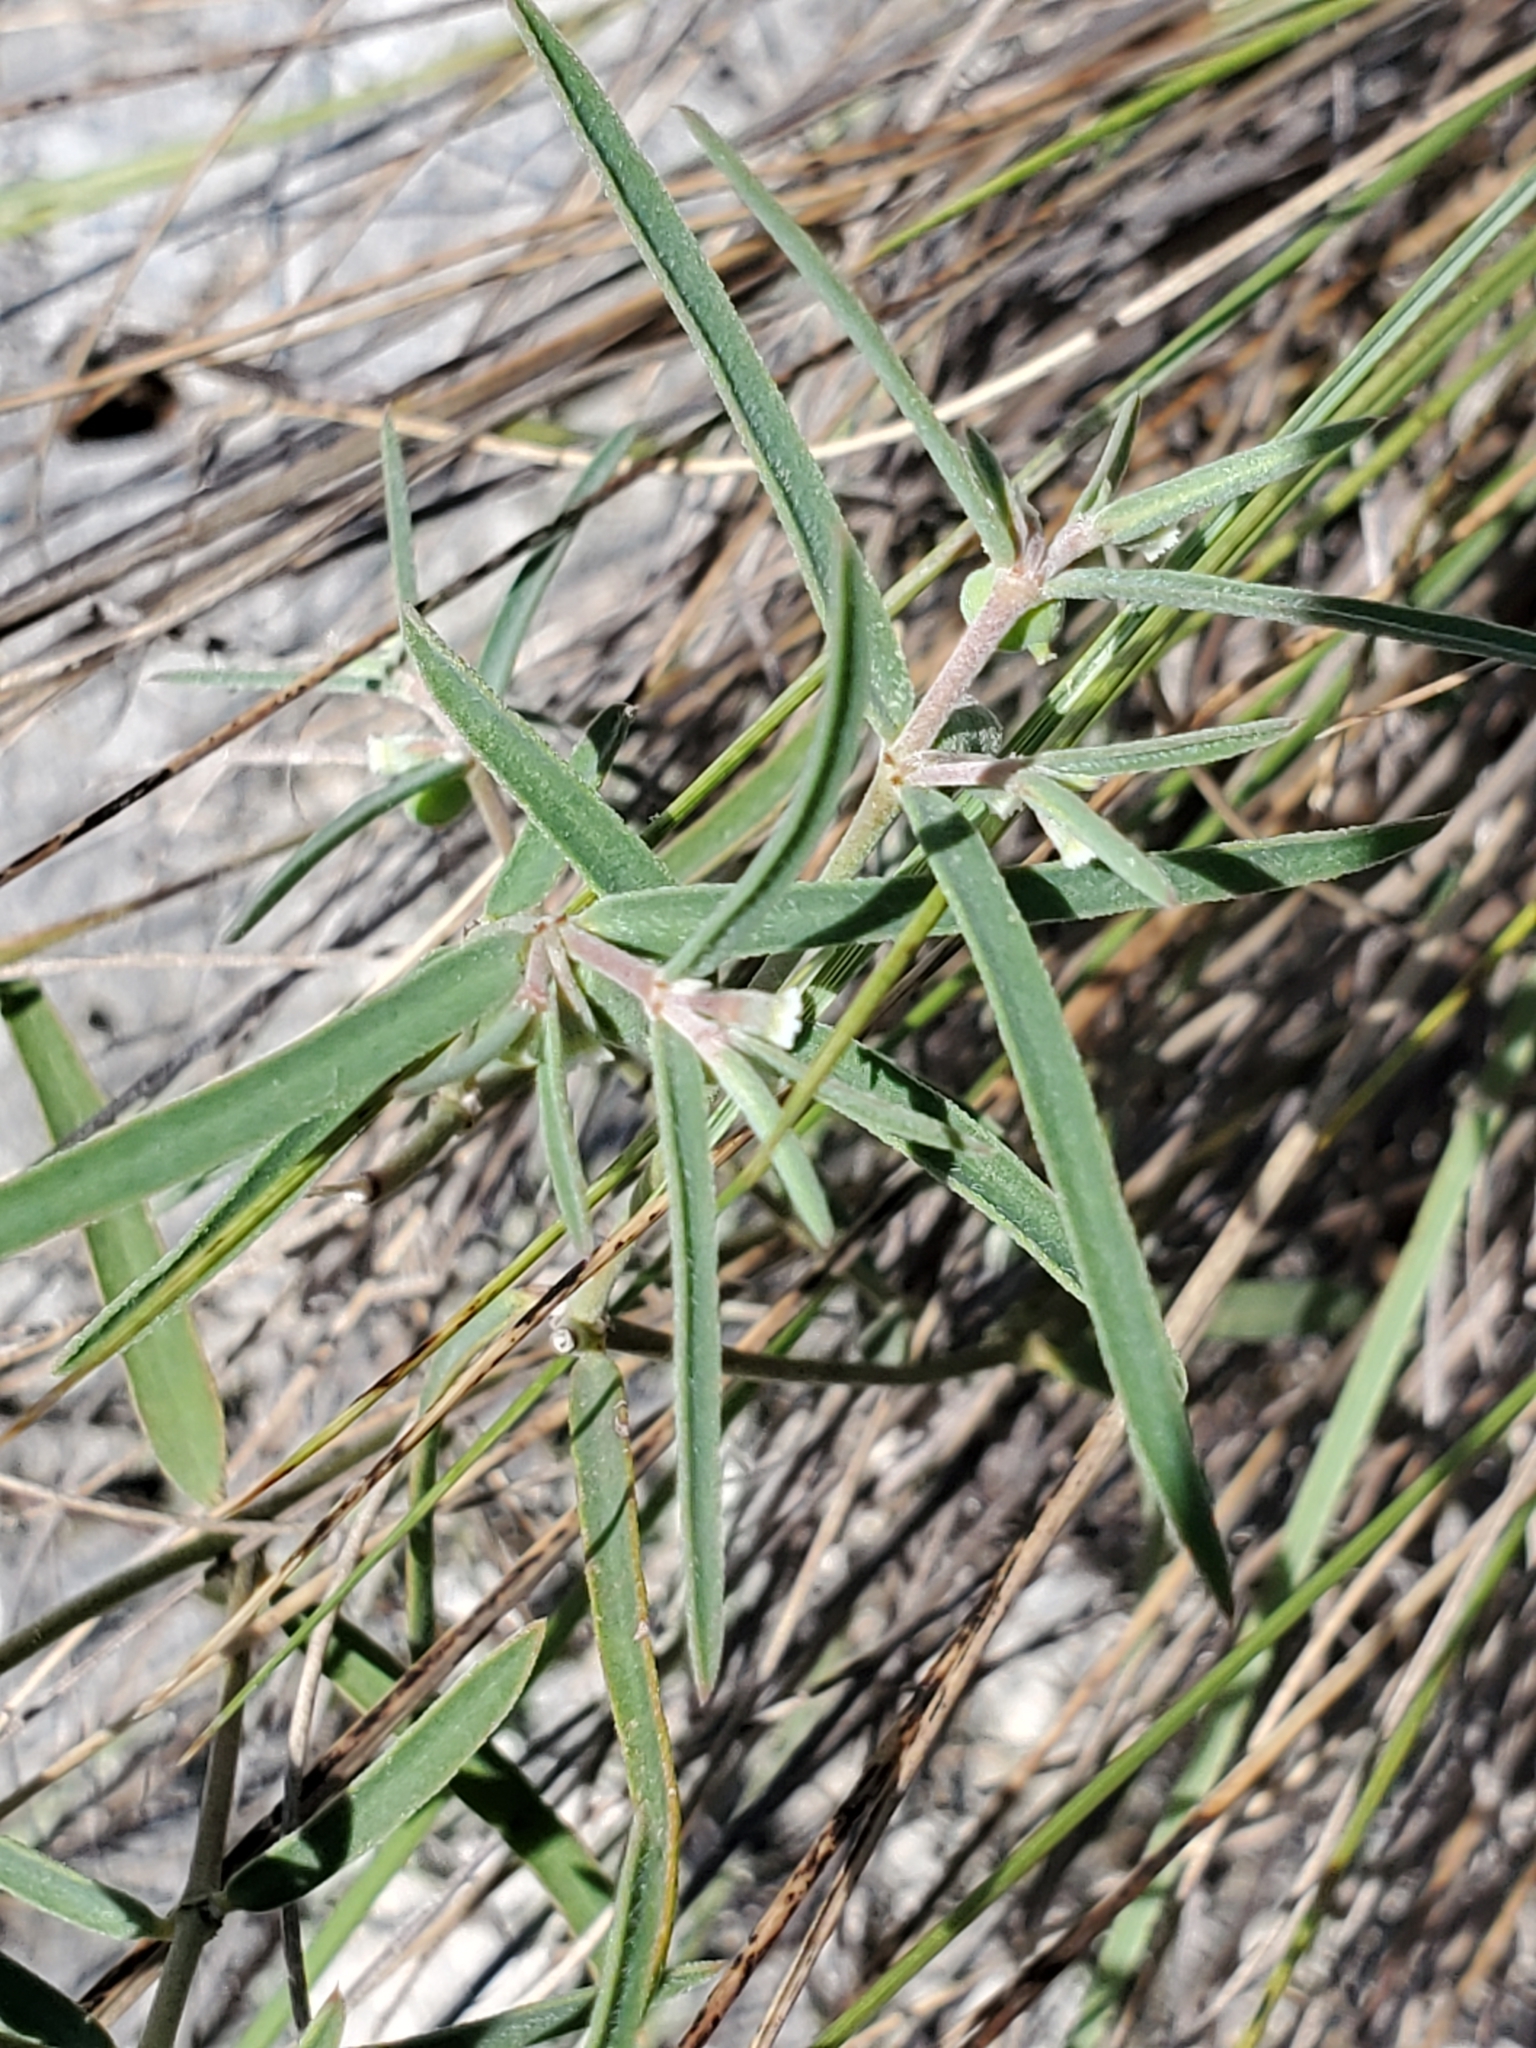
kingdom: Plantae
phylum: Tracheophyta
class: Magnoliopsida
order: Malpighiales
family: Euphorbiaceae
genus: Euphorbia
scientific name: Euphorbia angusta
